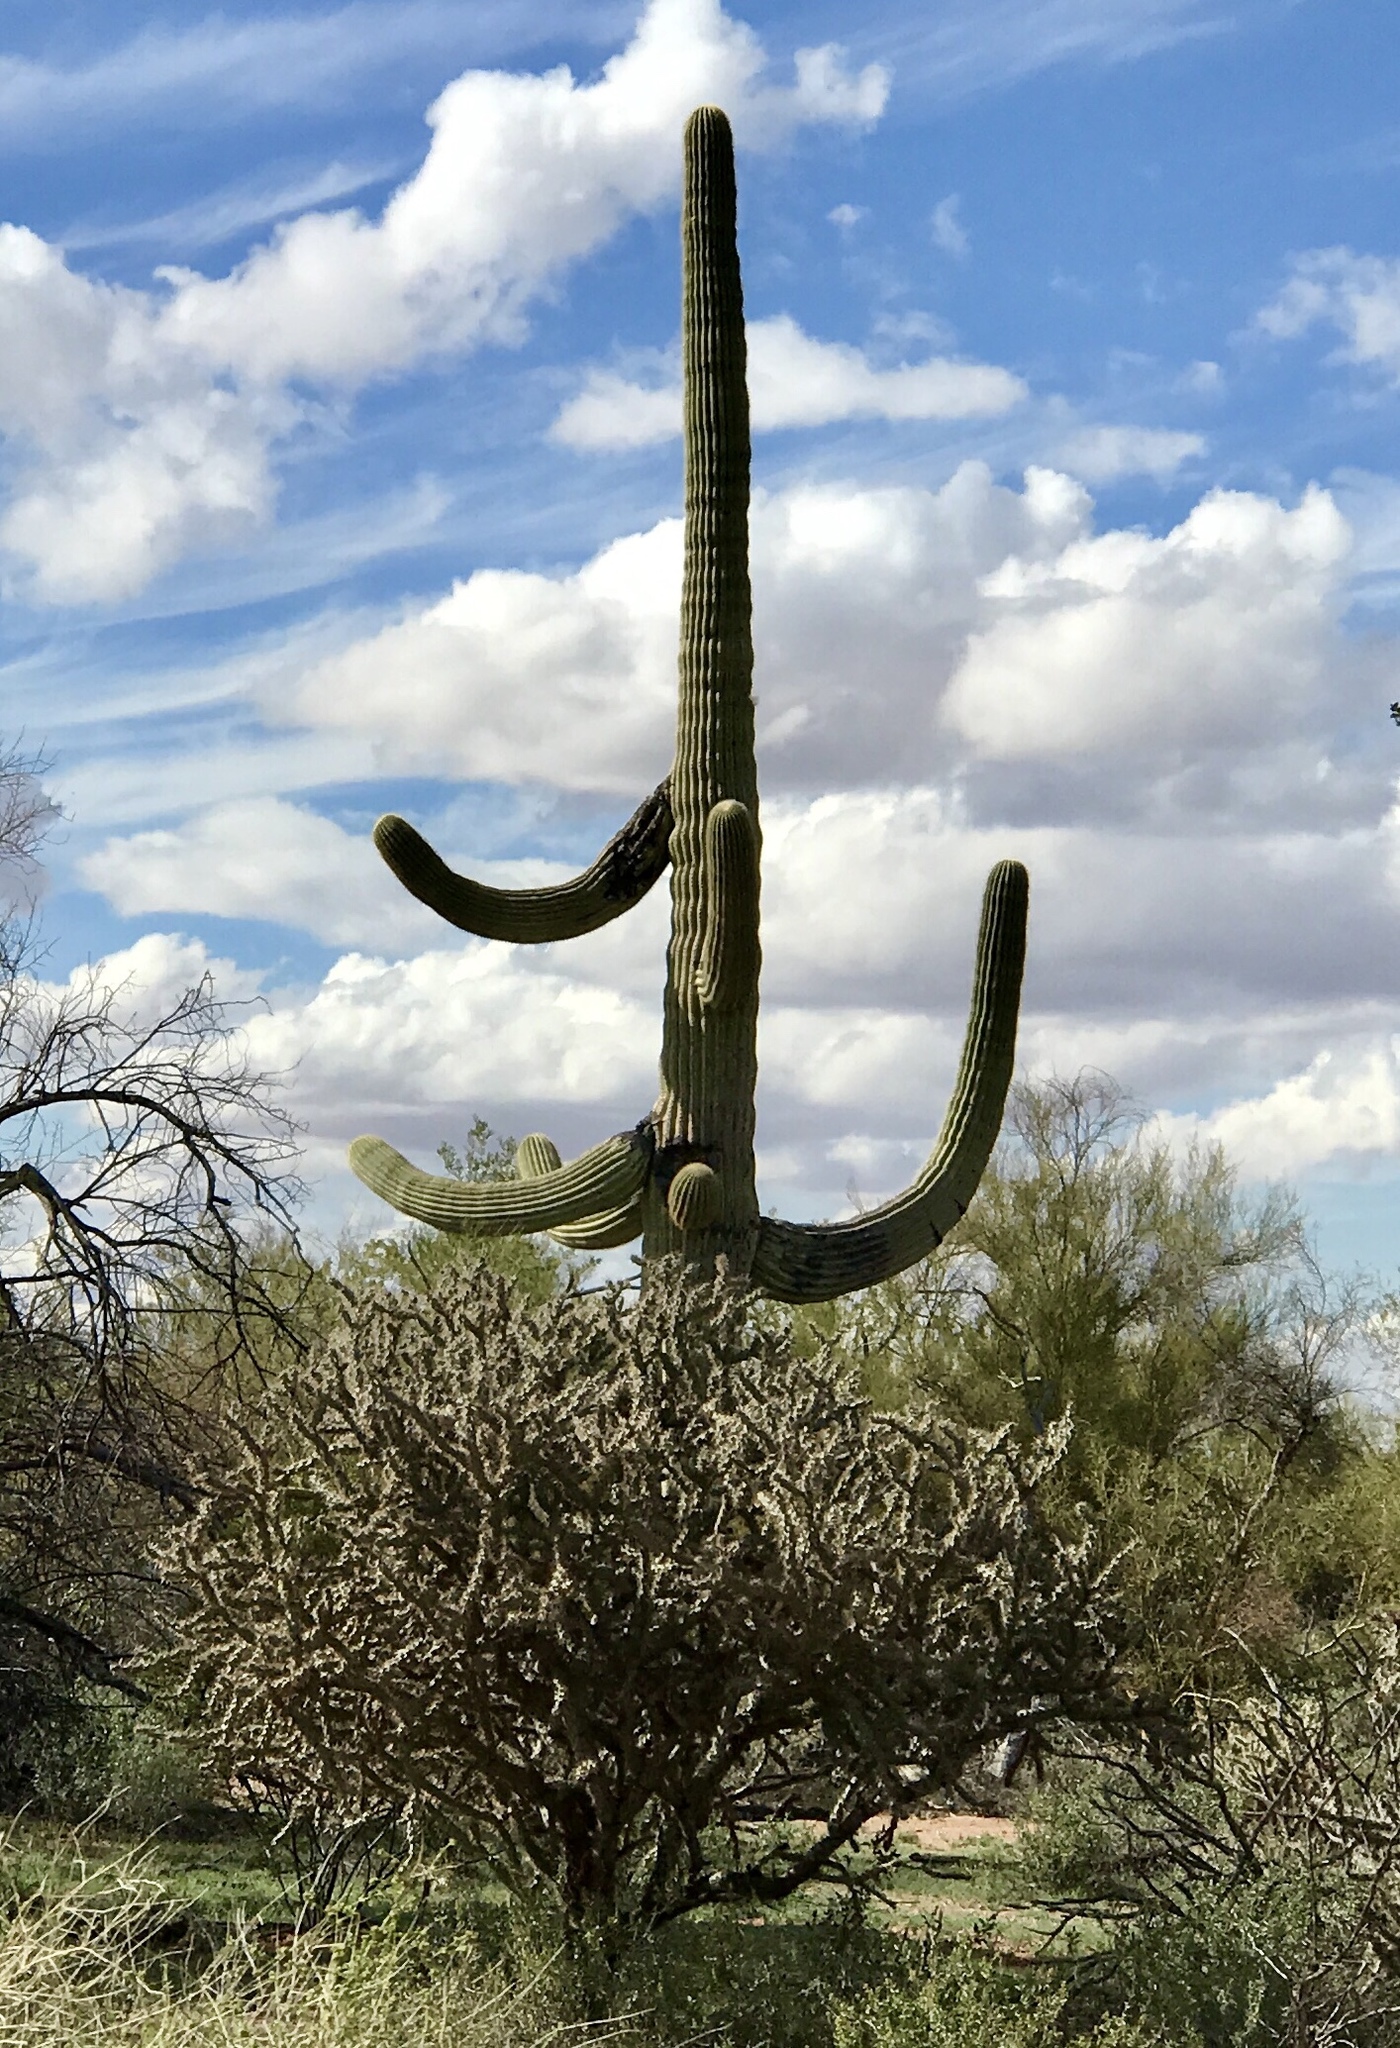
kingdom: Plantae
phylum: Tracheophyta
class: Magnoliopsida
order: Caryophyllales
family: Cactaceae
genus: Carnegiea
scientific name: Carnegiea gigantea
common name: Saguaro
